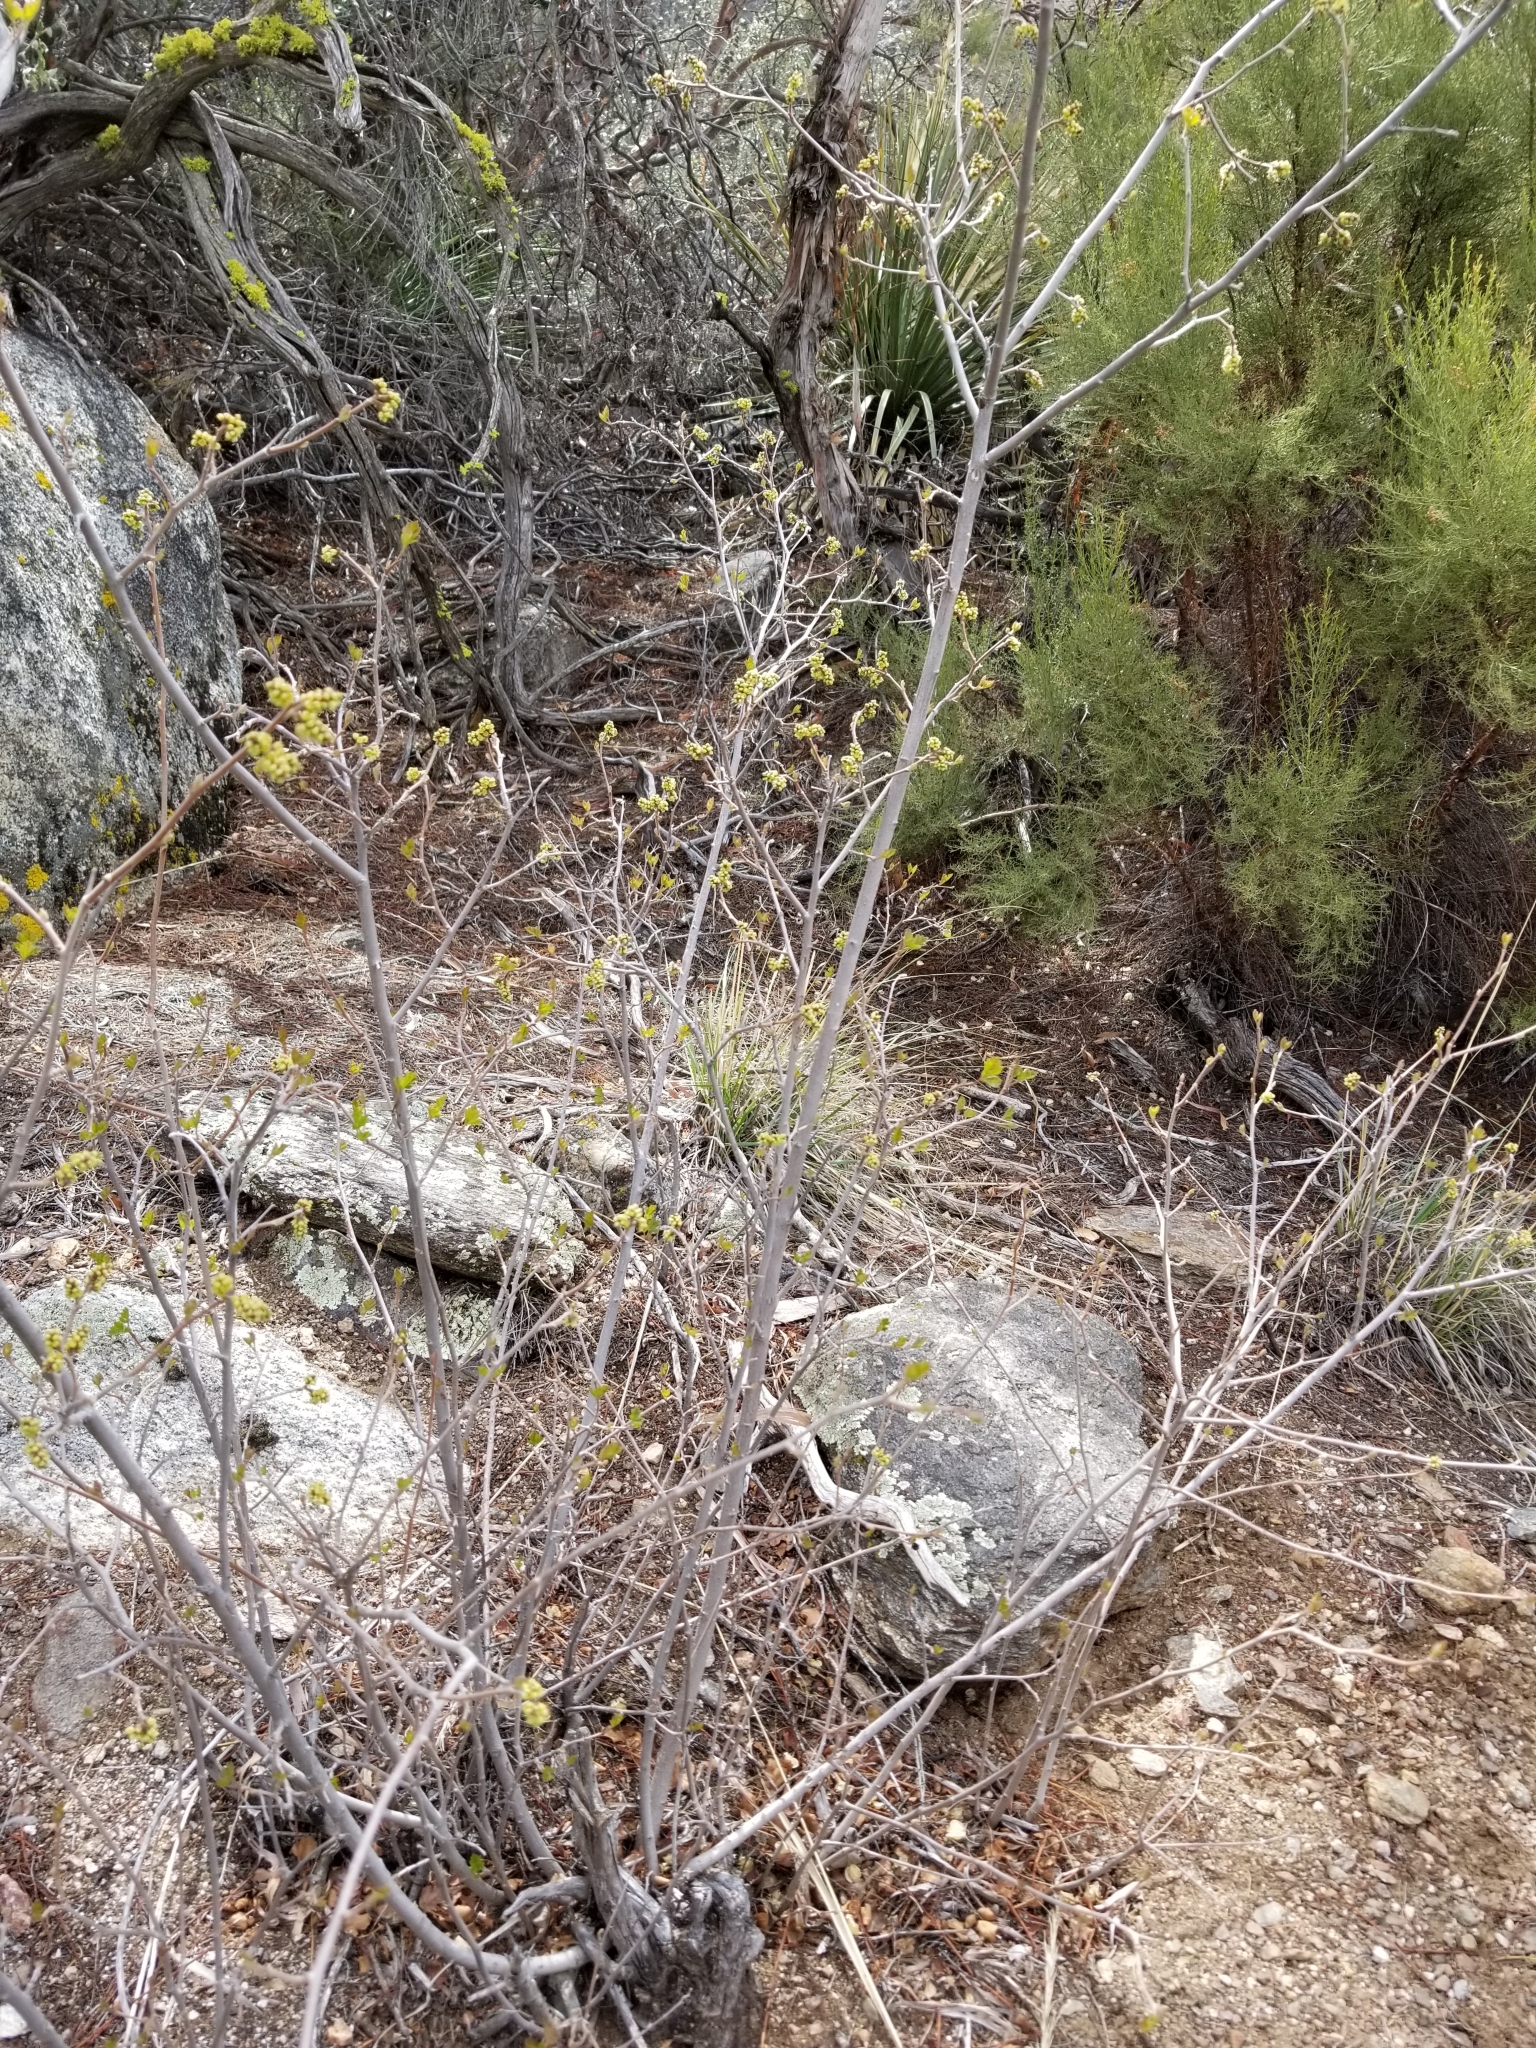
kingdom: Plantae
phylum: Tracheophyta
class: Magnoliopsida
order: Sapindales
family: Anacardiaceae
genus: Rhus
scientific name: Rhus aromatica
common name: Aromatic sumac
